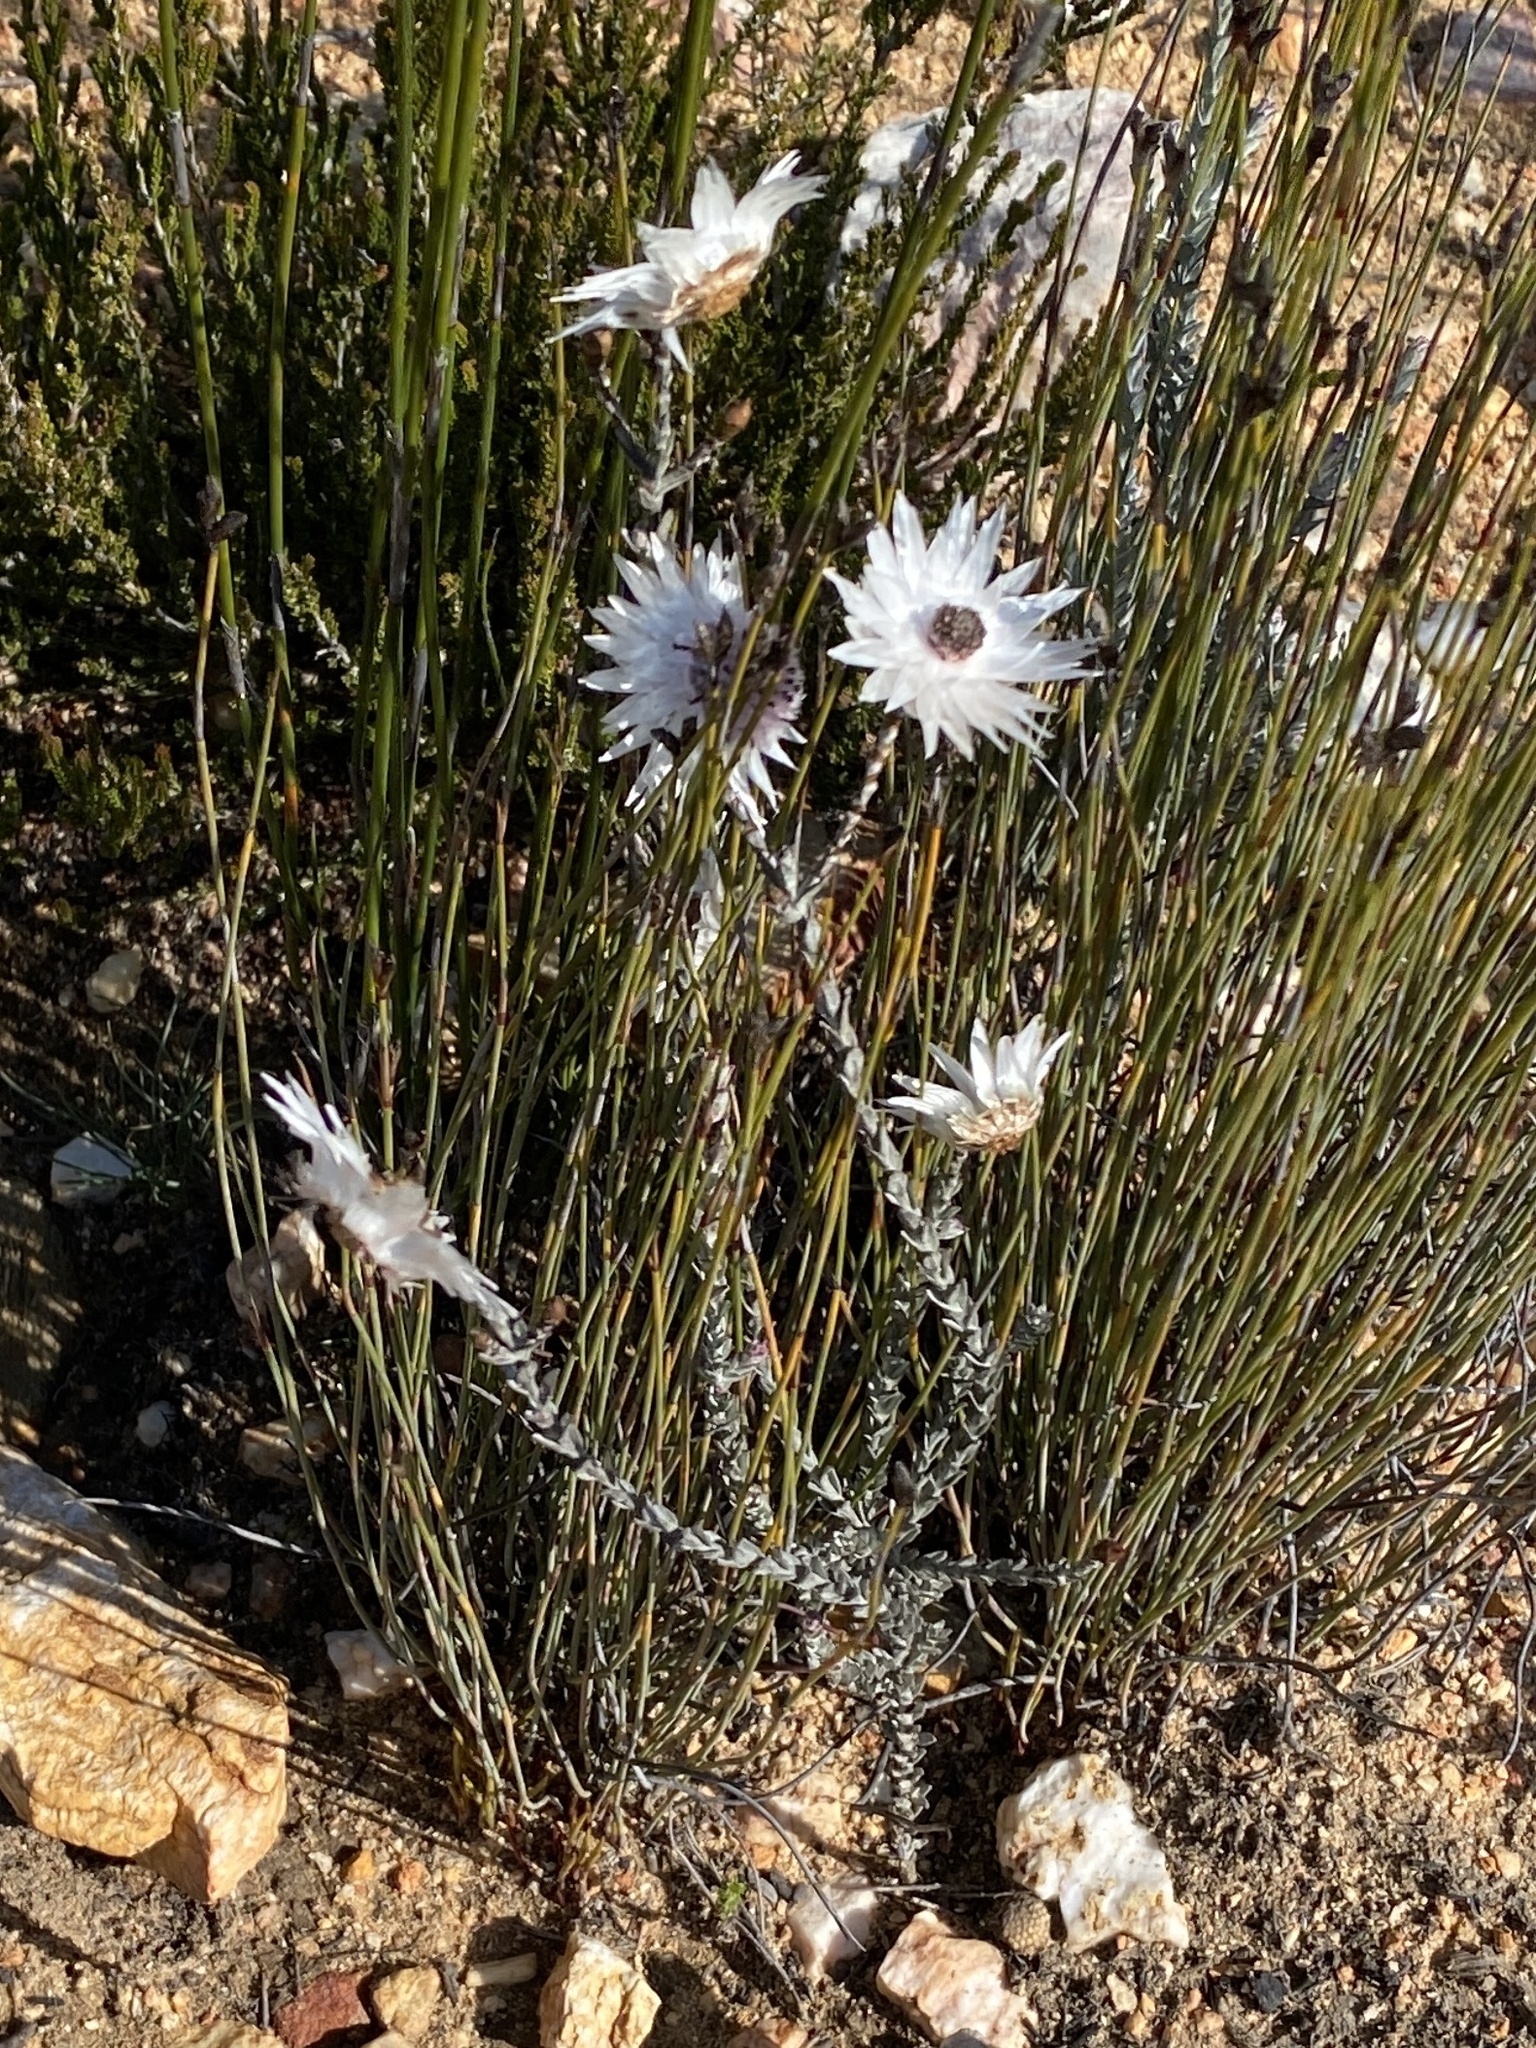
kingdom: Plantae
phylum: Tracheophyta
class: Magnoliopsida
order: Asterales
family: Asteraceae
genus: Syncarpha
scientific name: Syncarpha canescens
